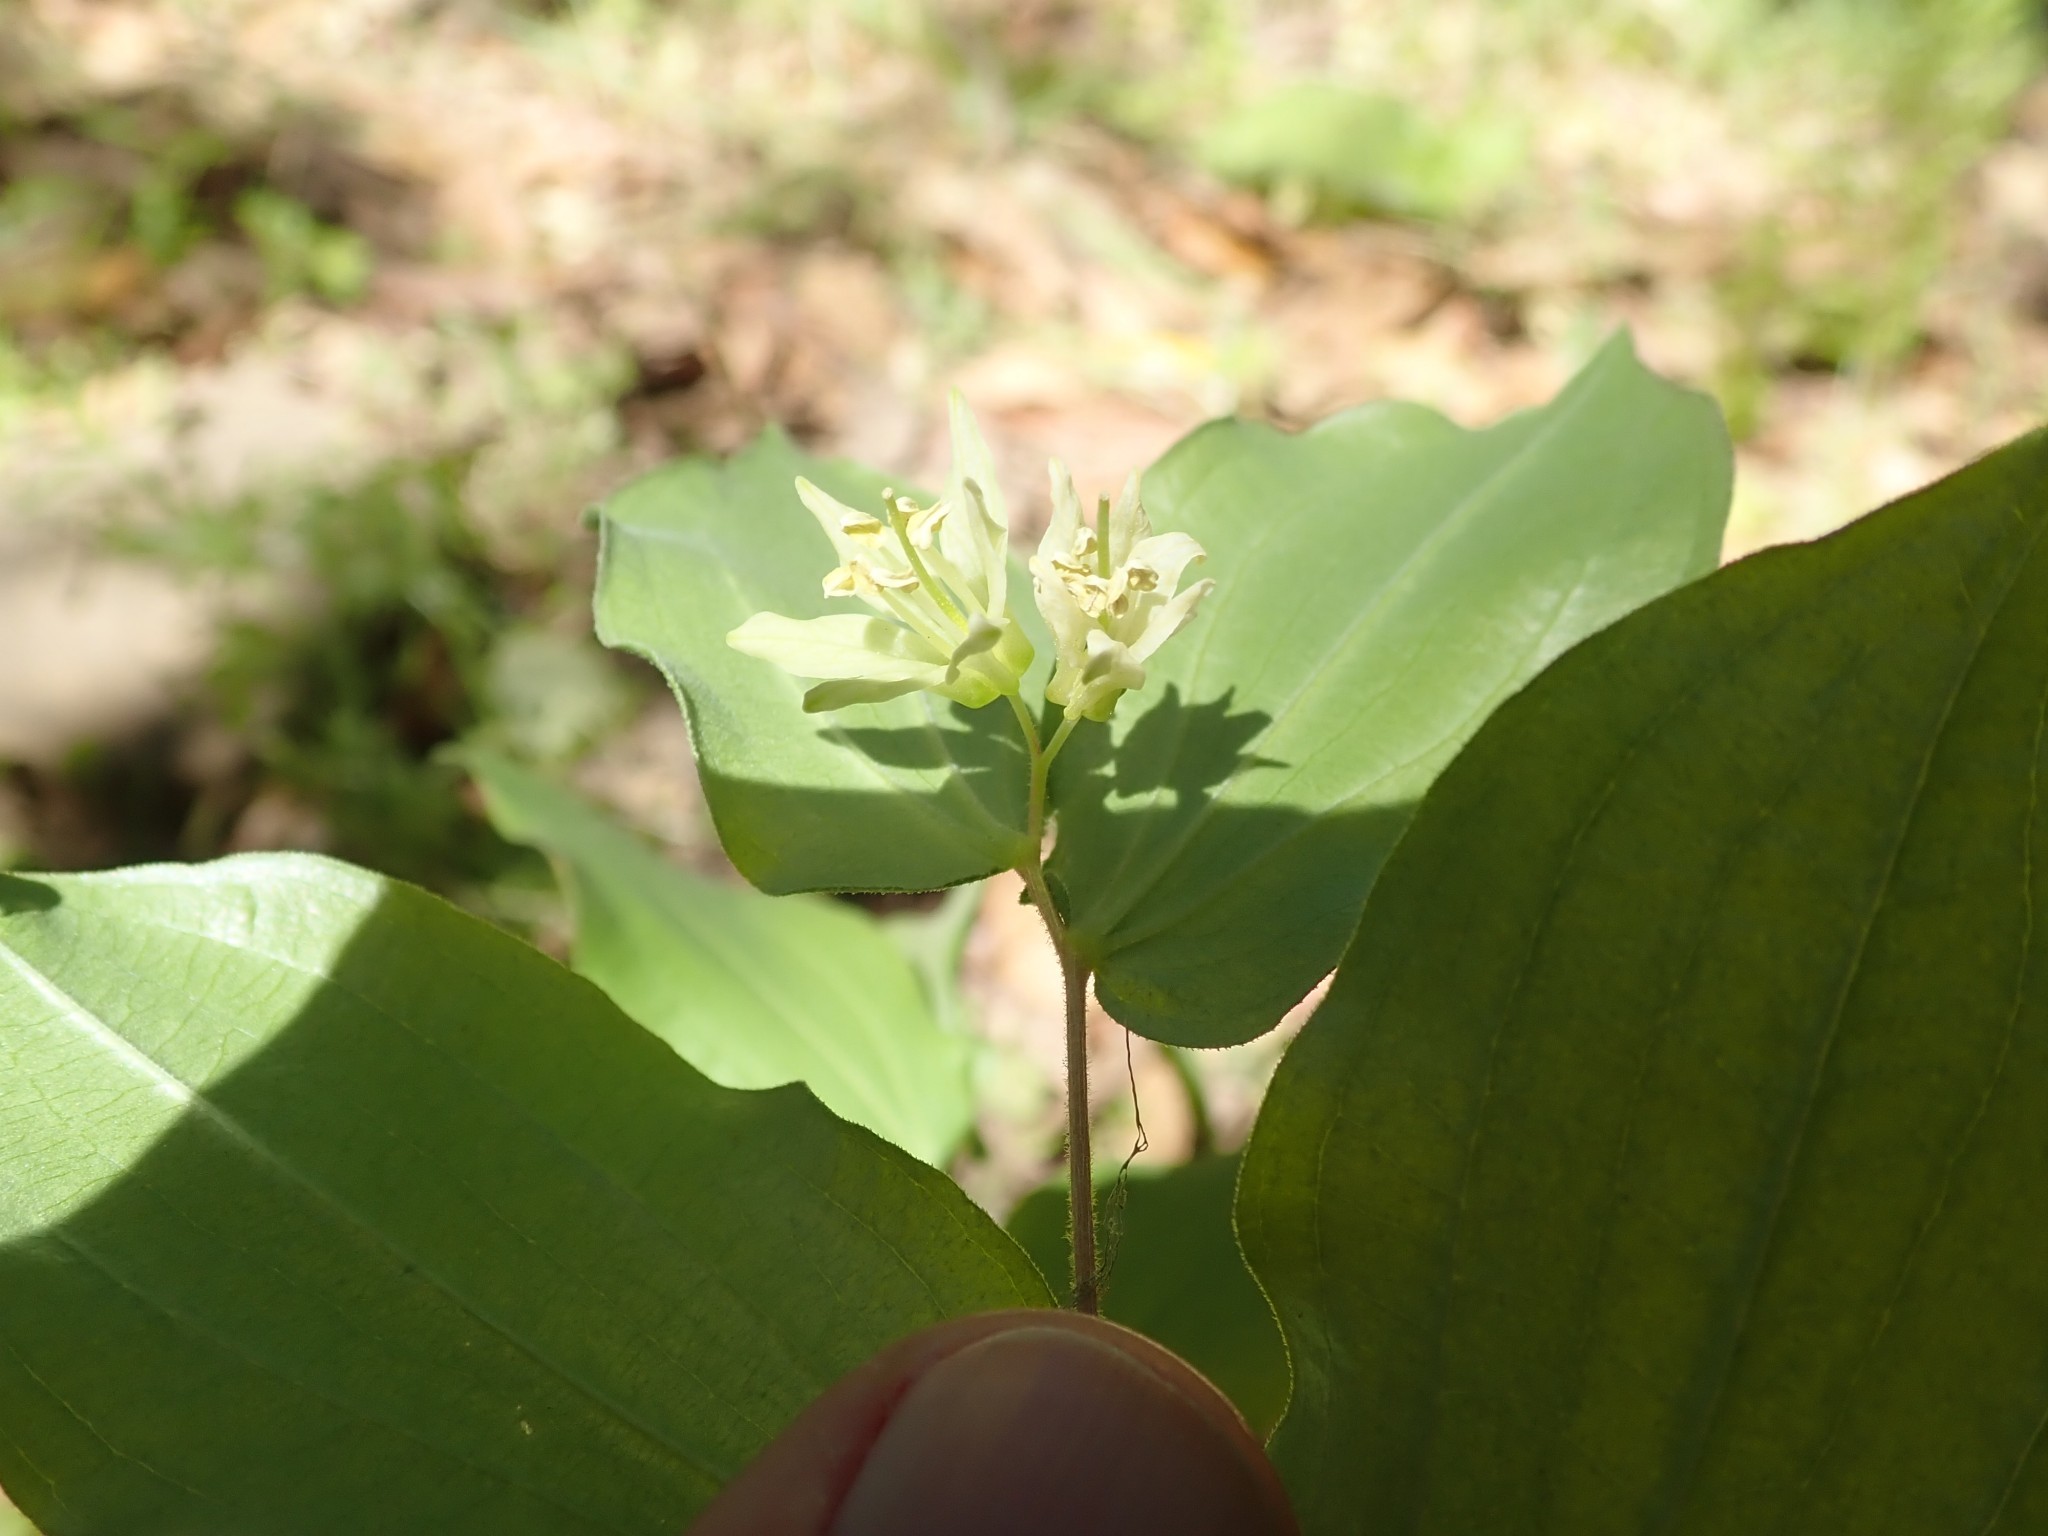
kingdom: Plantae
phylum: Tracheophyta
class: Liliopsida
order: Liliales
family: Liliaceae
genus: Prosartes
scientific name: Prosartes hookeri
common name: Fairy-bells
